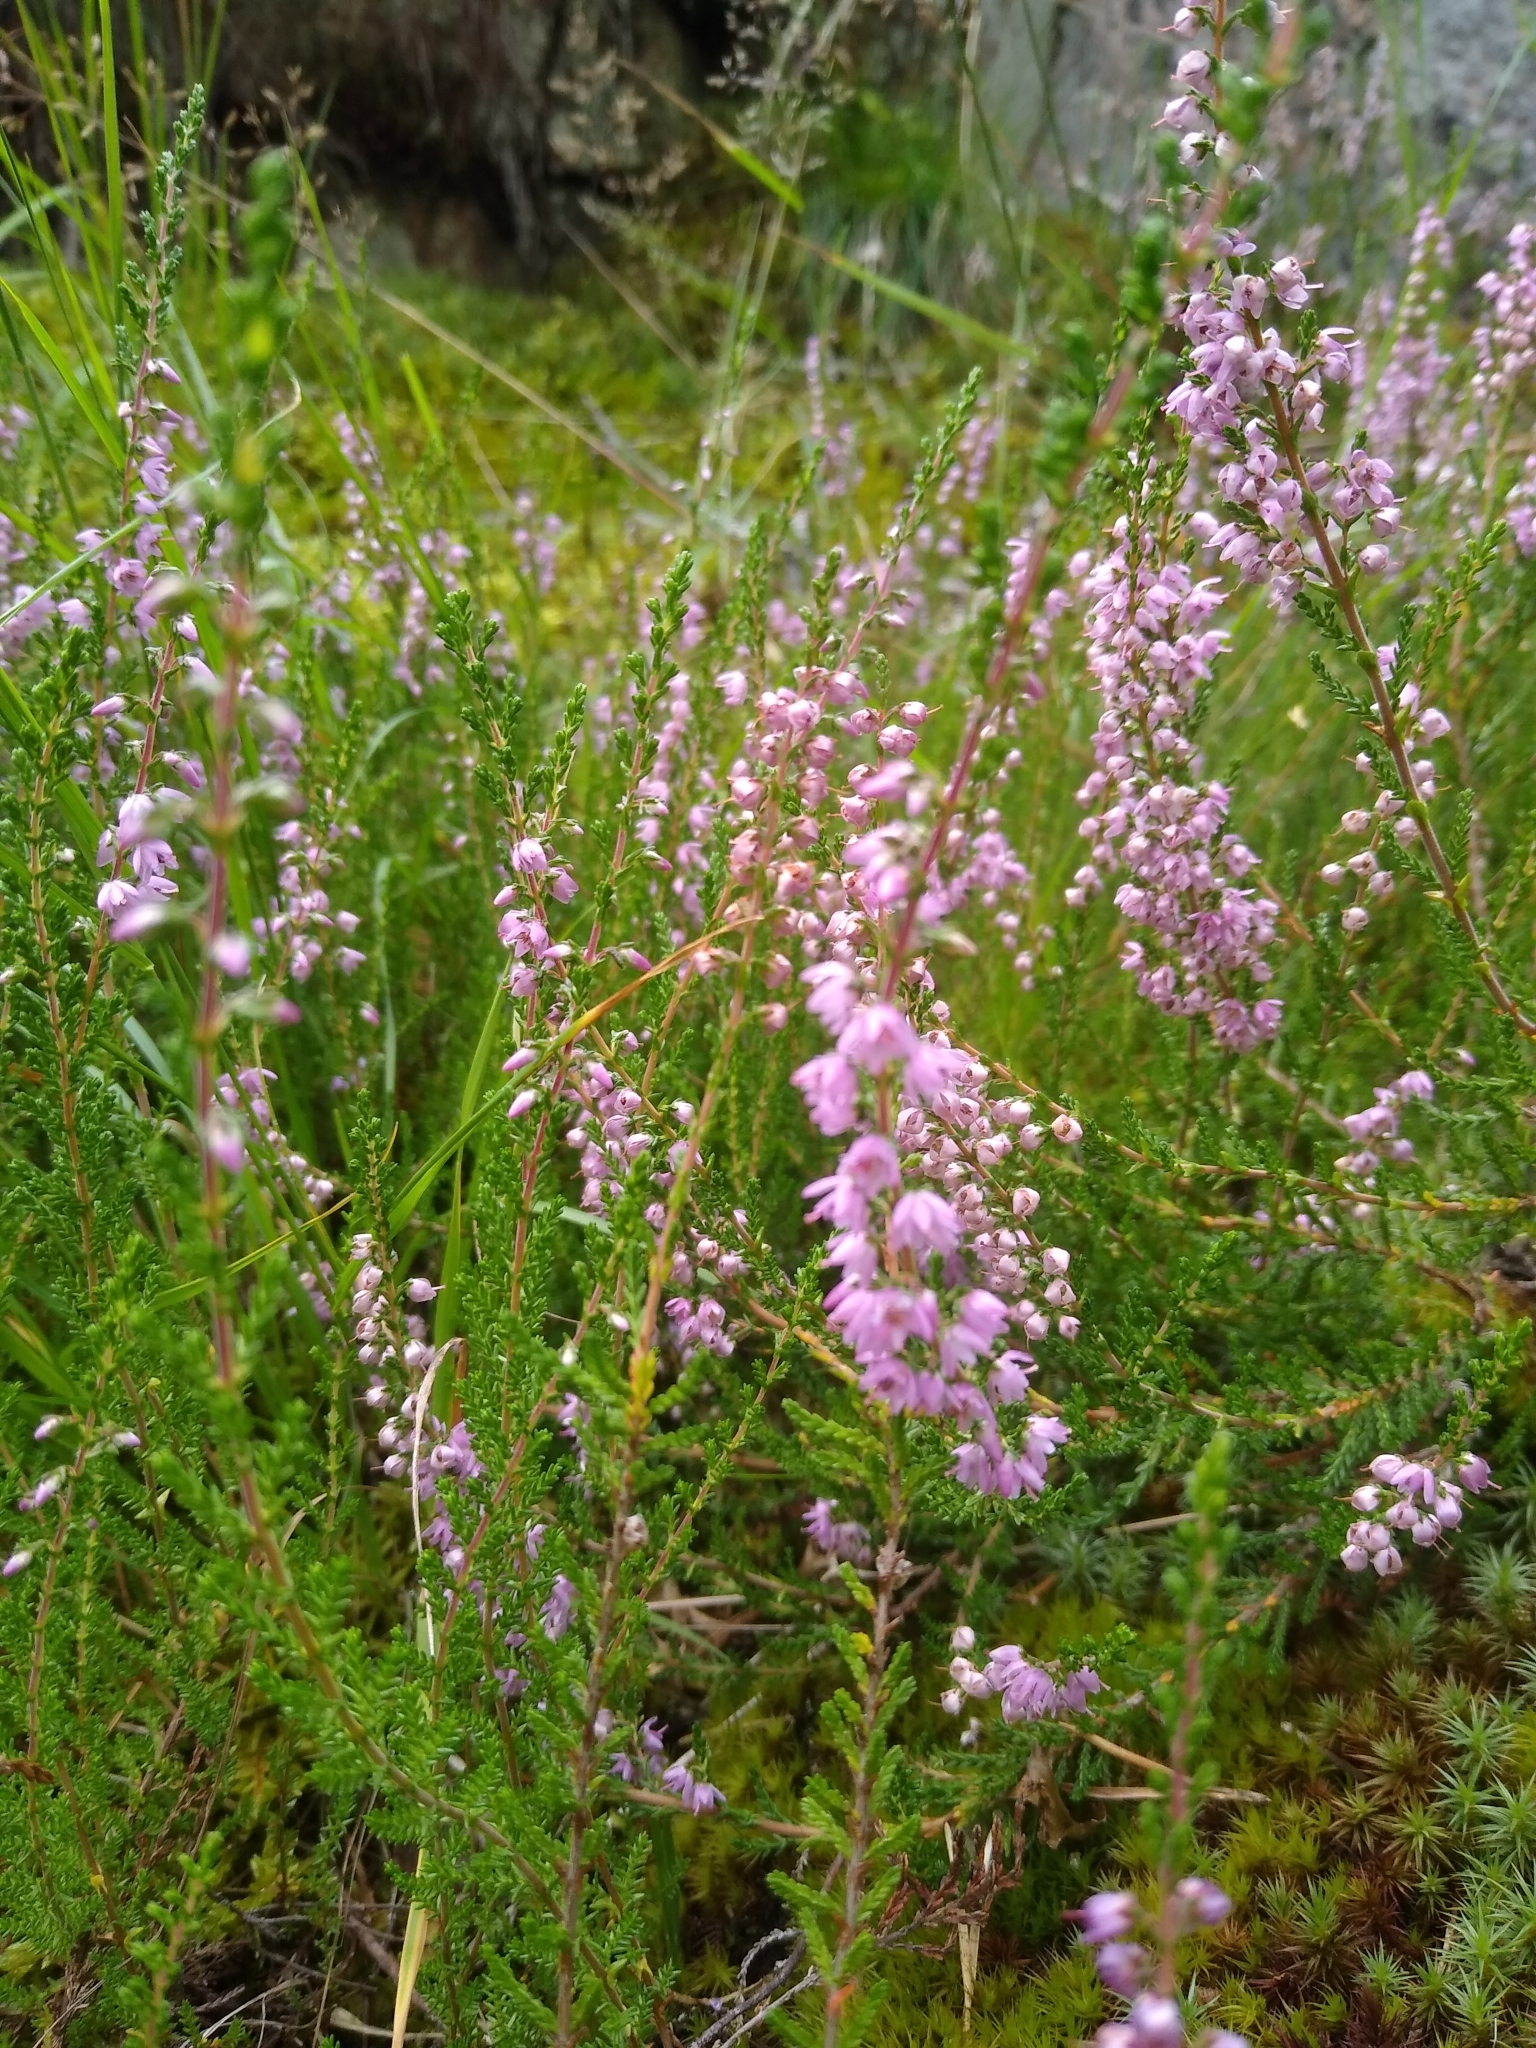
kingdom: Plantae
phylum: Tracheophyta
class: Magnoliopsida
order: Ericales
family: Ericaceae
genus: Calluna
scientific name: Calluna vulgaris
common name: Heather
